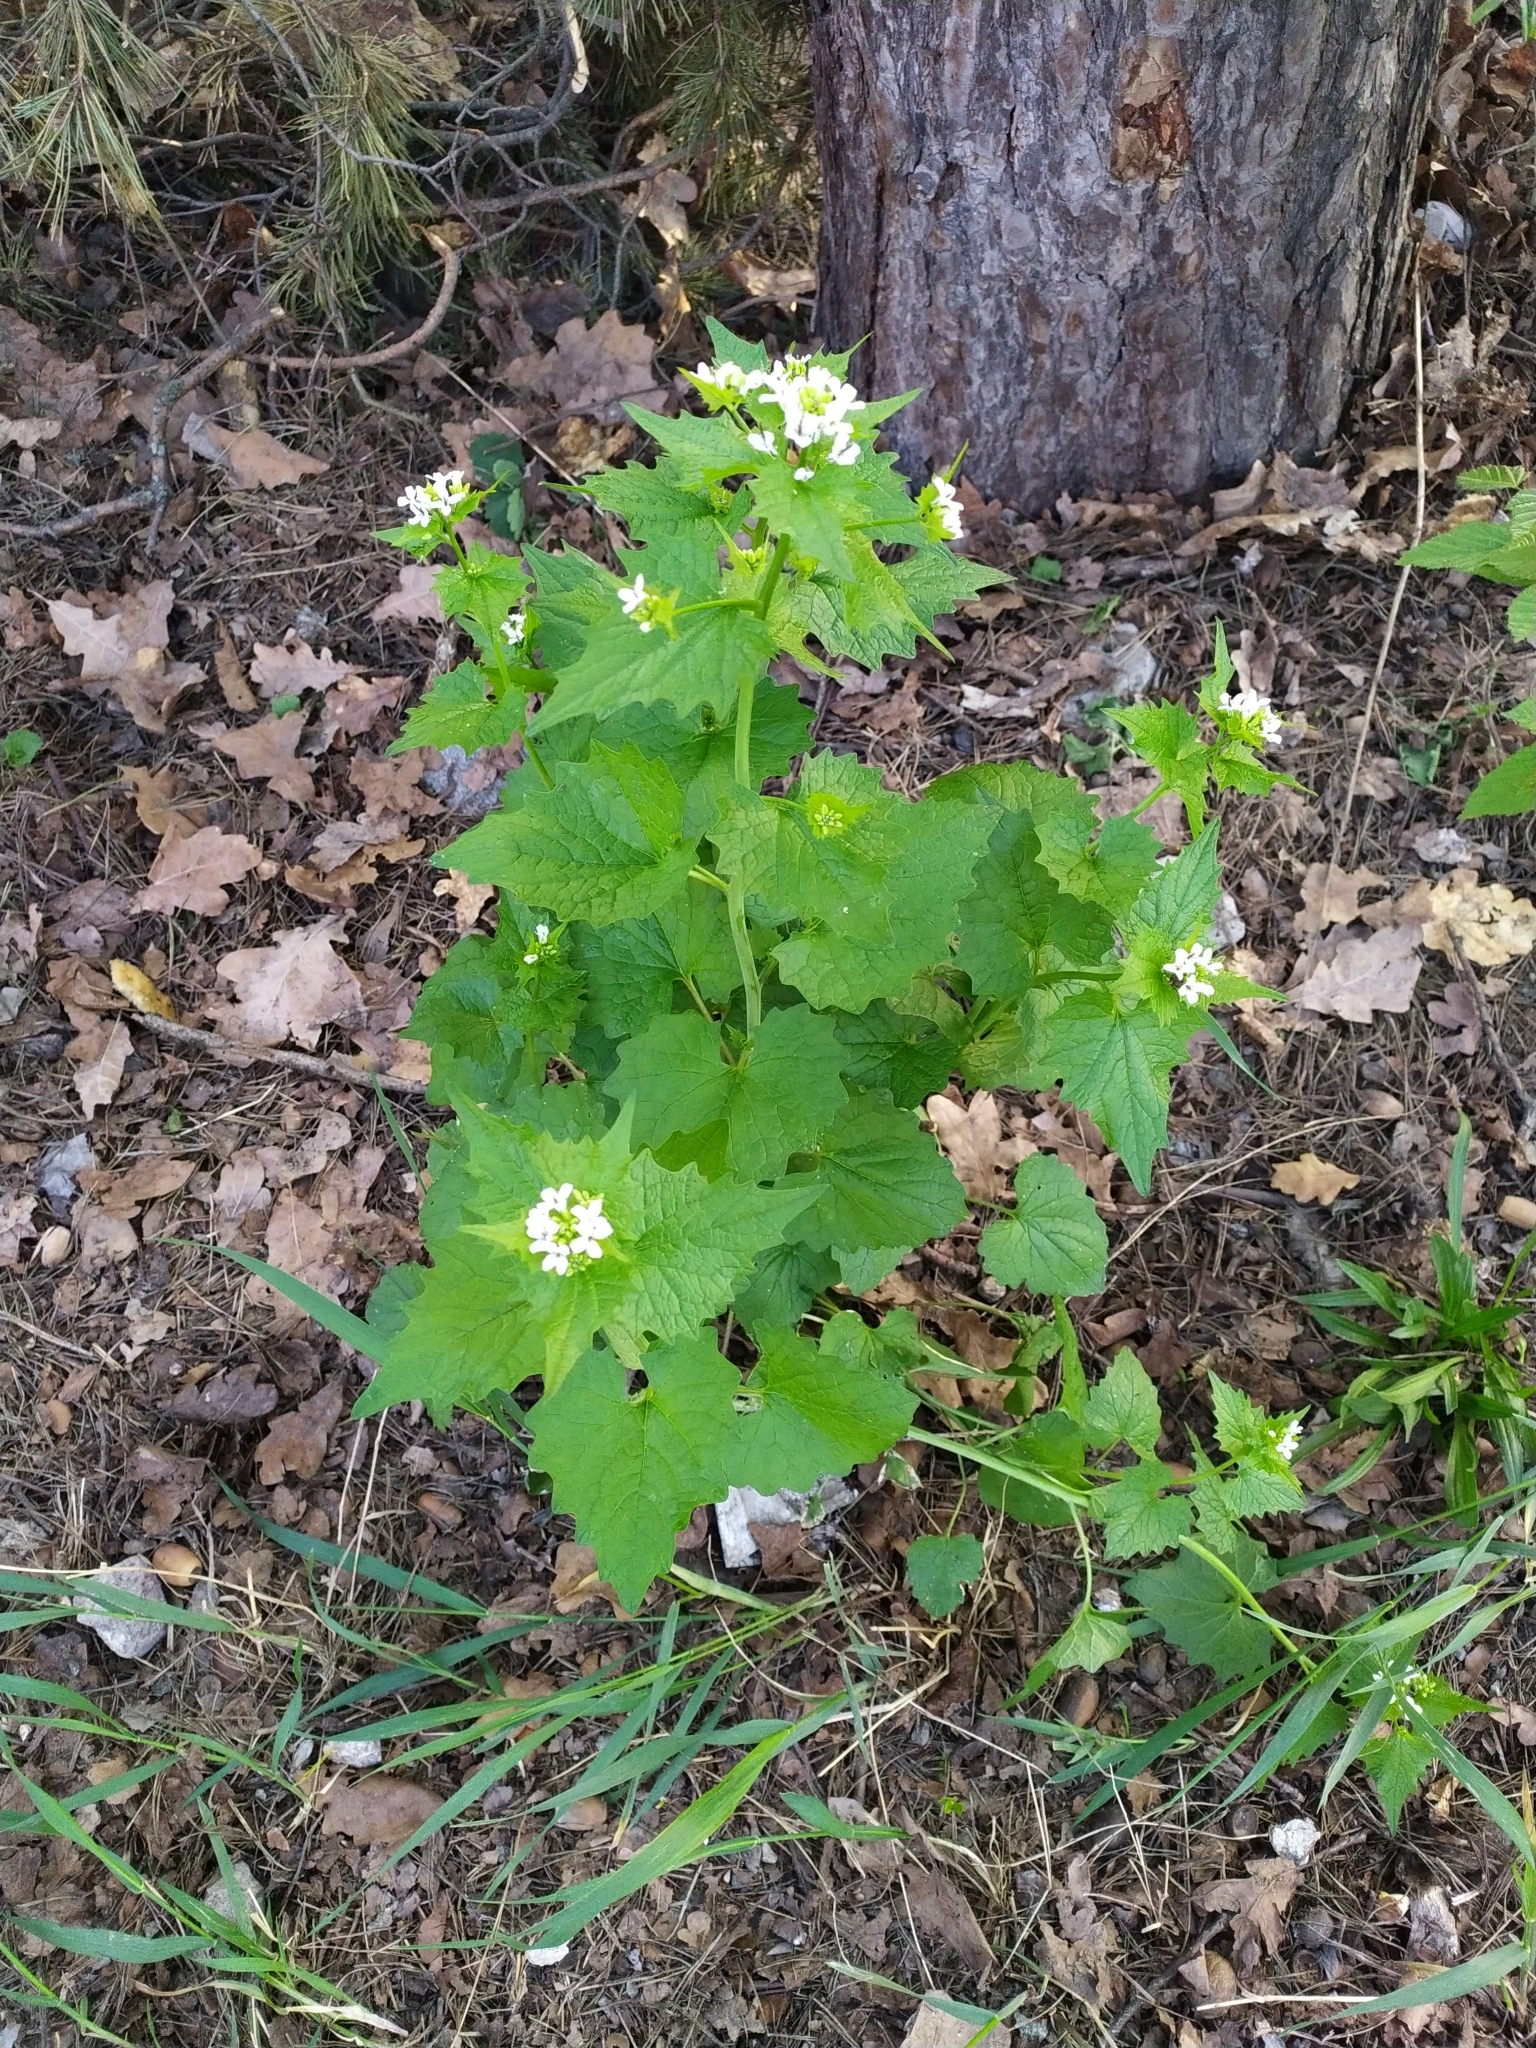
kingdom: Plantae
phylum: Tracheophyta
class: Magnoliopsida
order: Brassicales
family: Brassicaceae
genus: Alliaria
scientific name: Alliaria petiolata
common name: Garlic mustard
